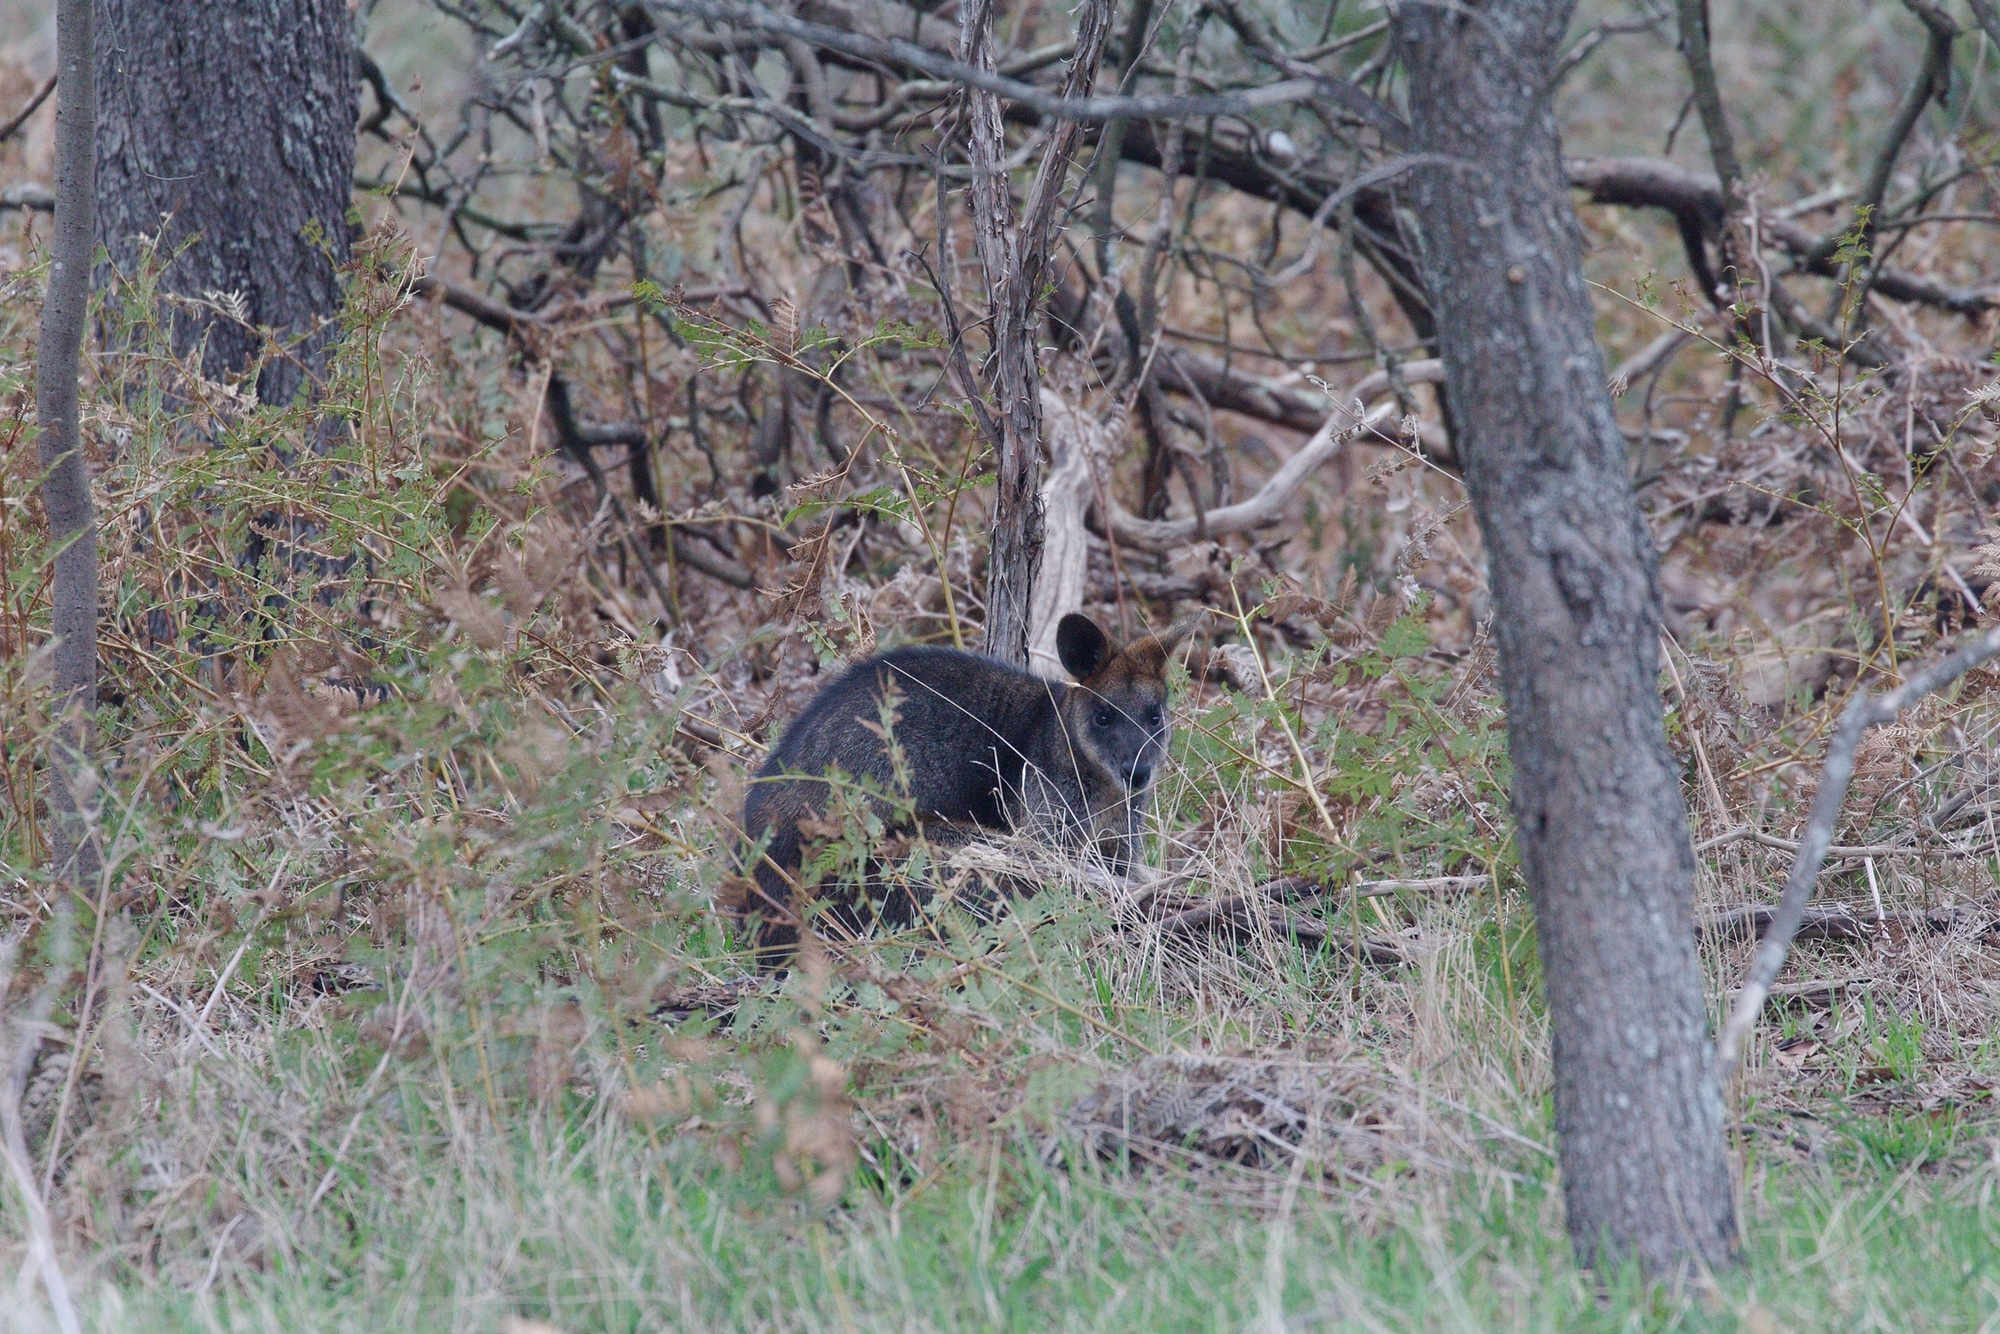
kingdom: Animalia
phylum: Chordata
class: Mammalia
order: Diprotodontia
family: Macropodidae
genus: Wallabia
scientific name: Wallabia bicolor
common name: Swamp wallaby
